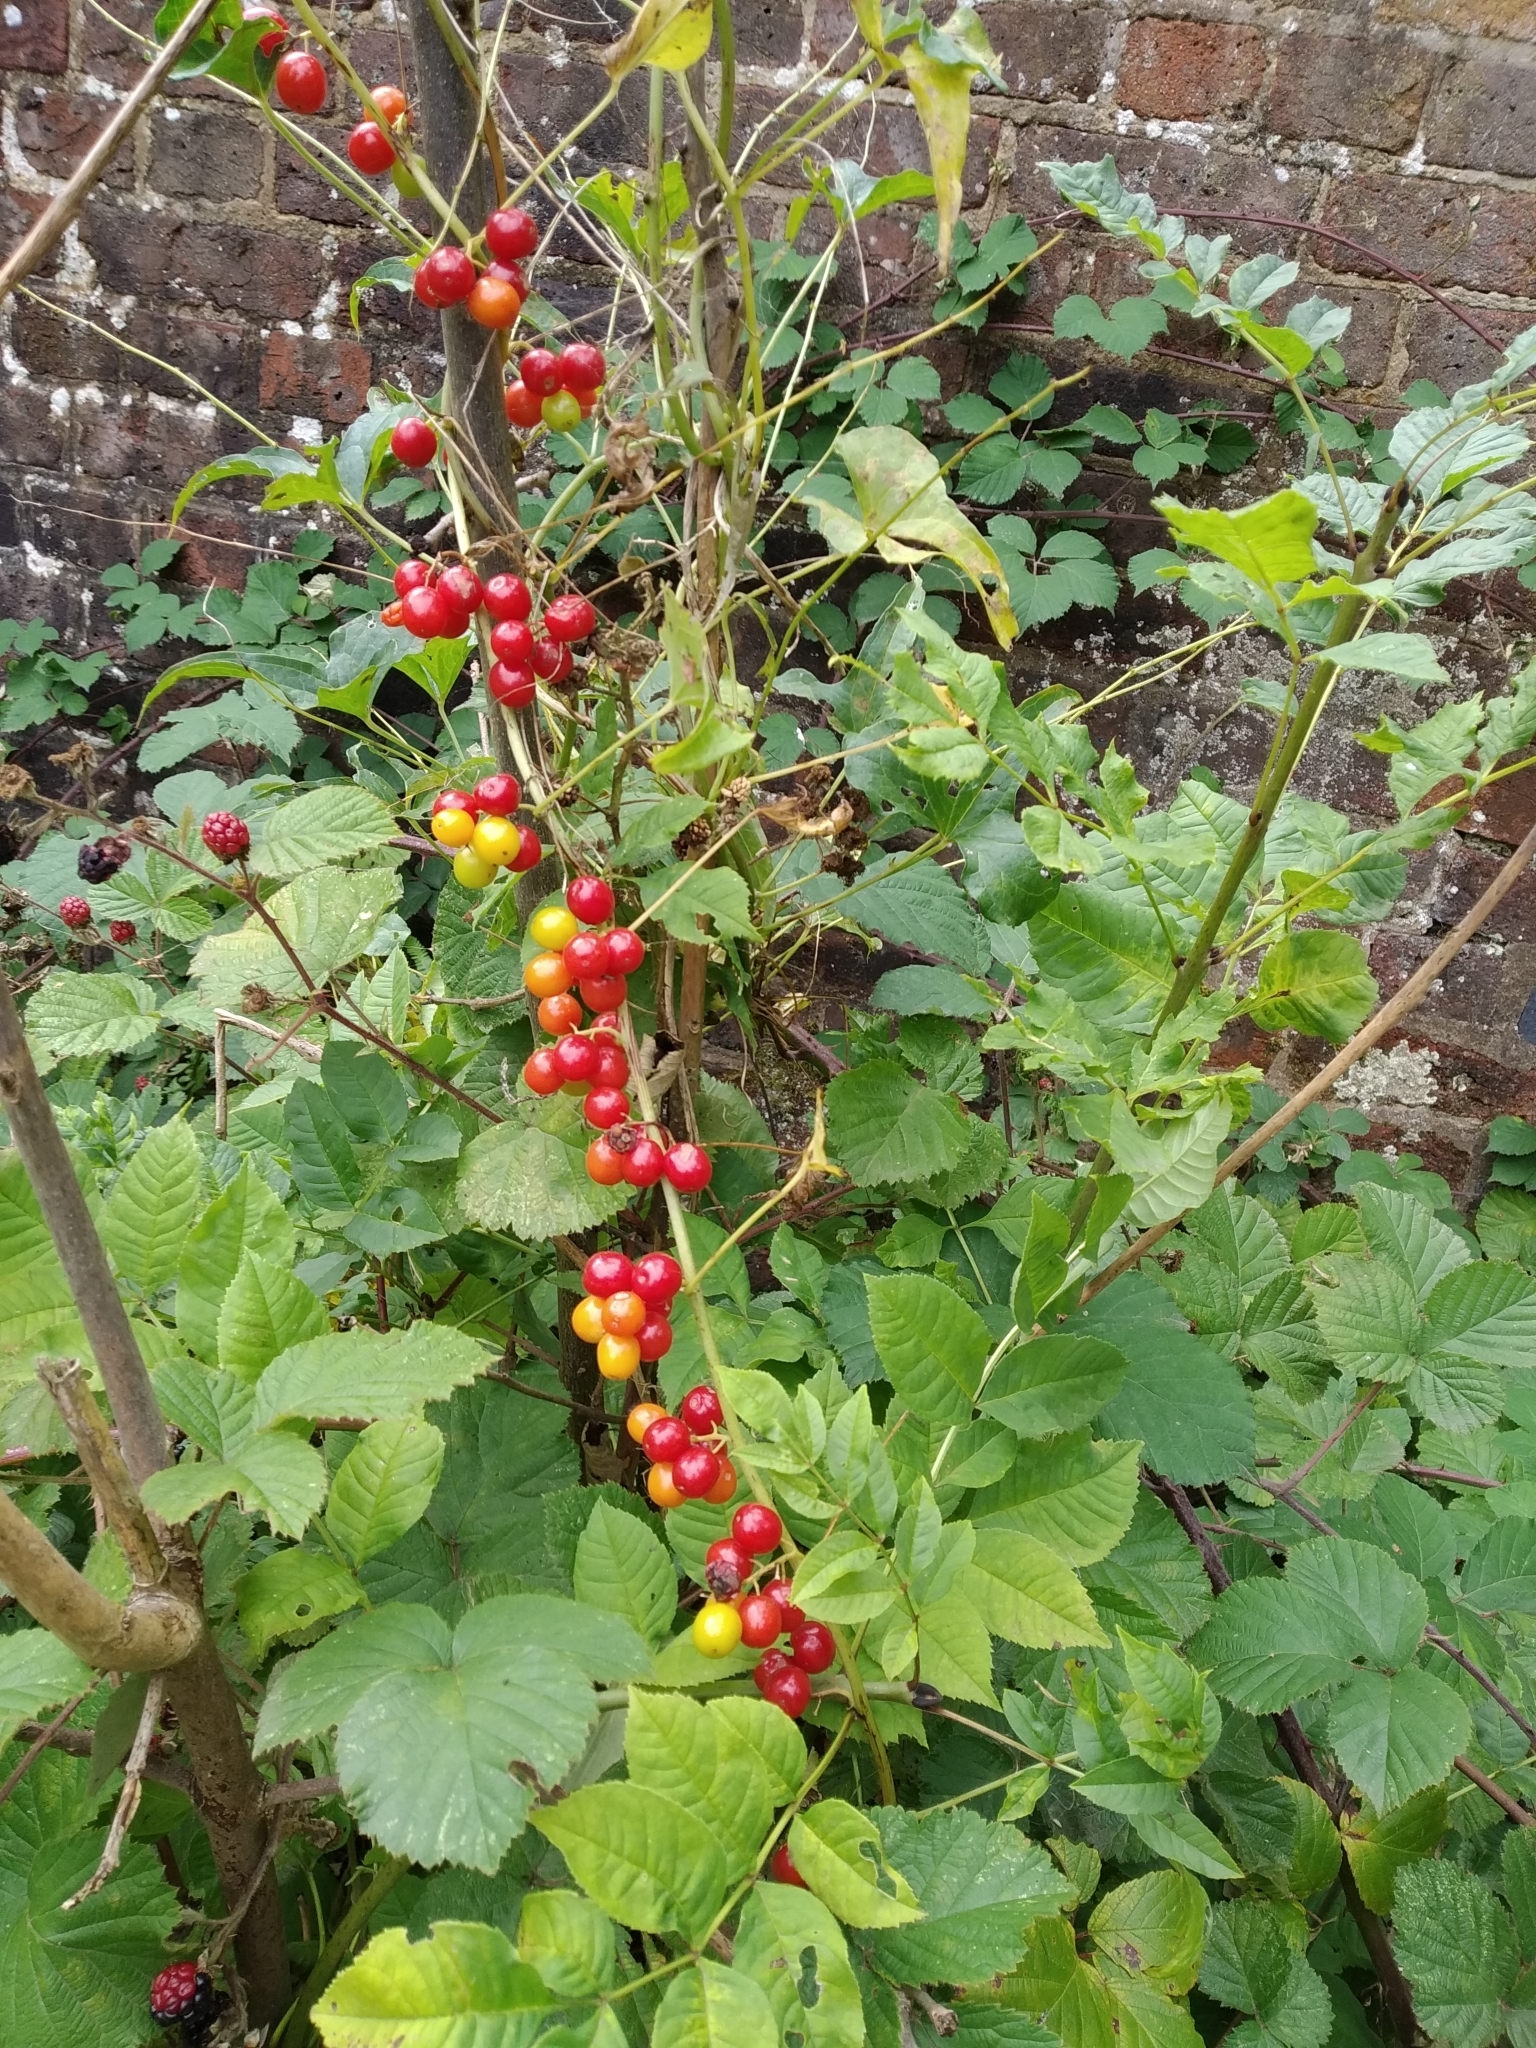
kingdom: Plantae
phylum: Tracheophyta
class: Liliopsida
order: Dioscoreales
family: Dioscoreaceae
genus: Dioscorea
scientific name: Dioscorea communis
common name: Black-bindweed
